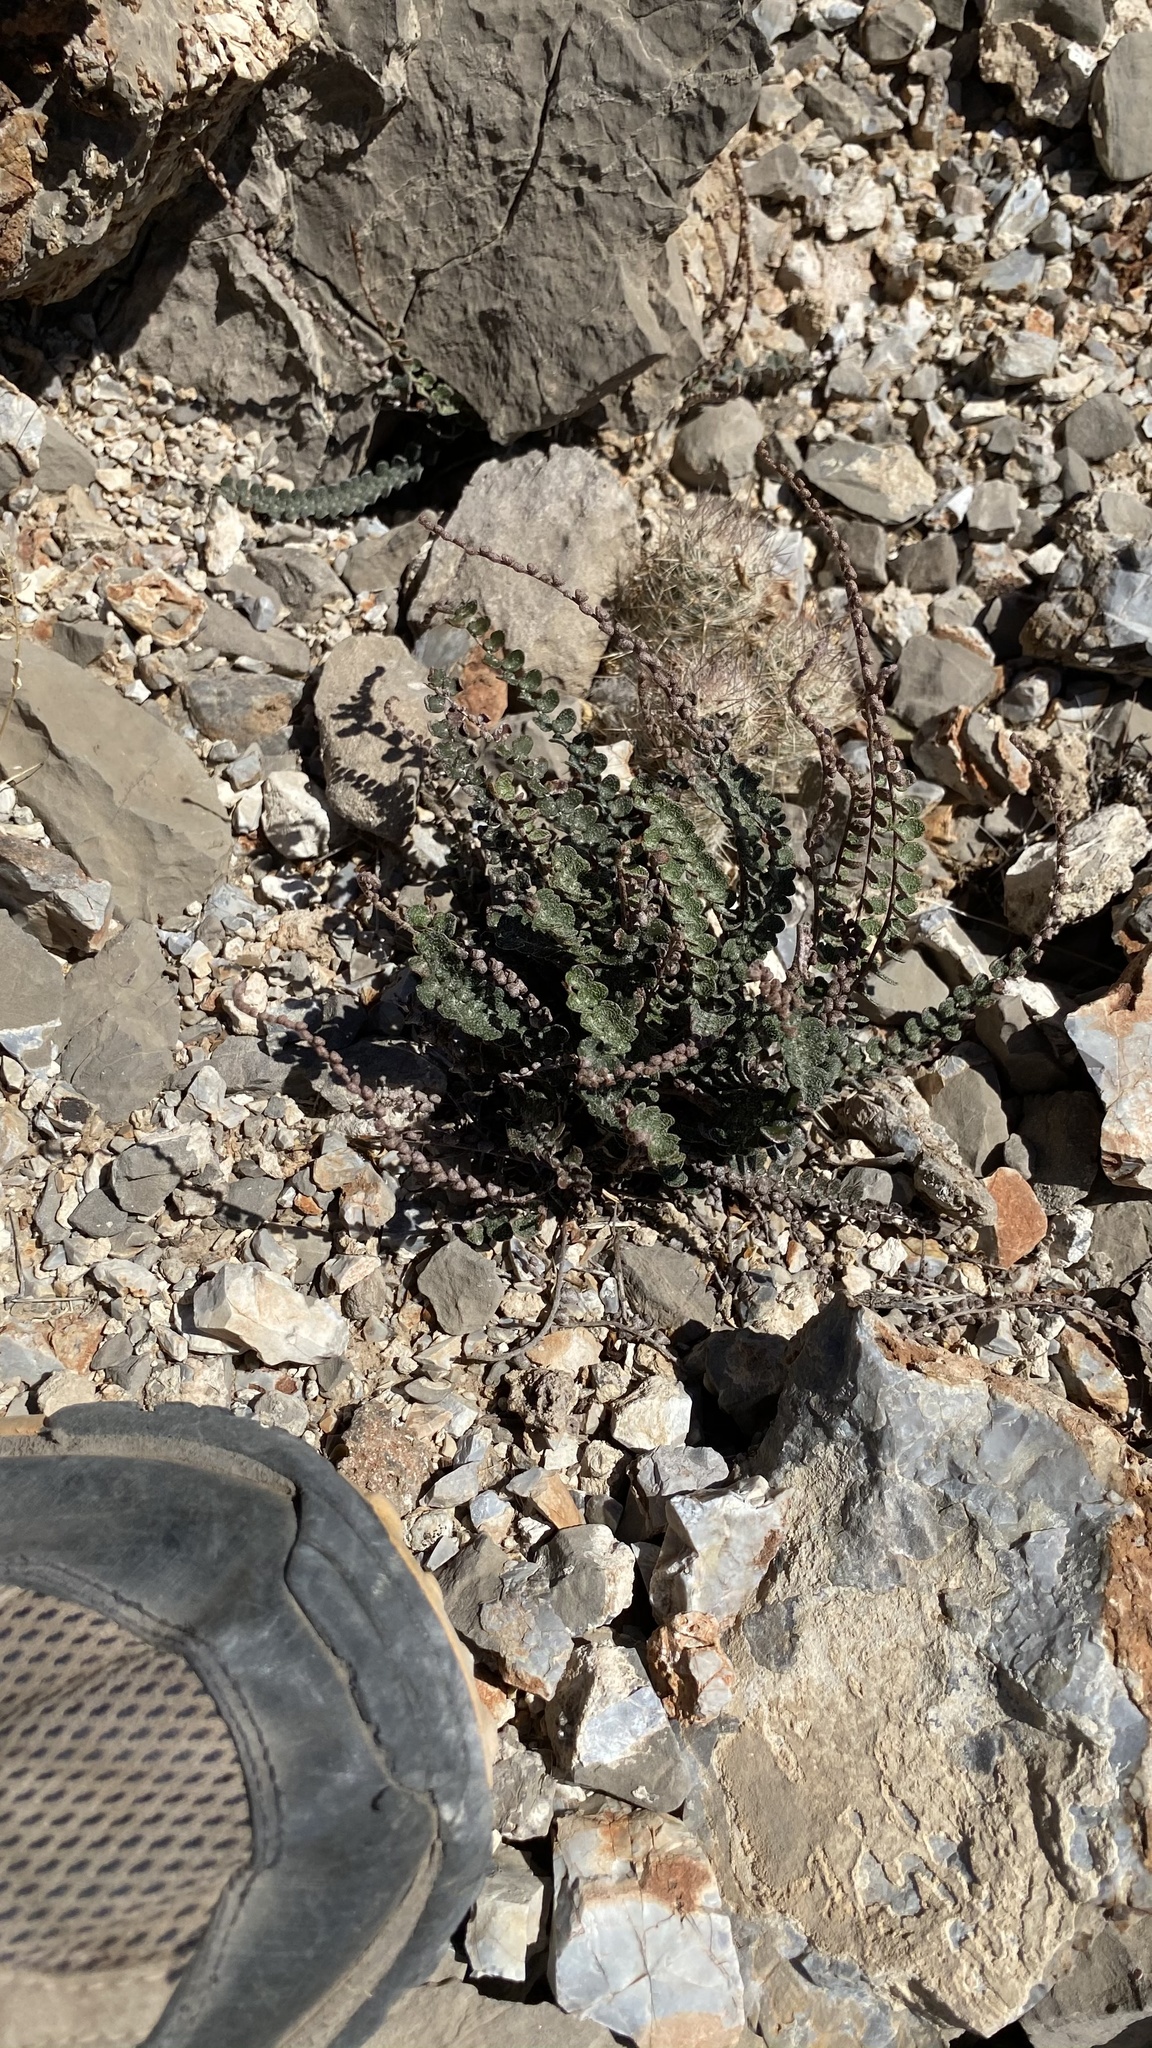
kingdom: Plantae
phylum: Tracheophyta
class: Polypodiopsida
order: Polypodiales
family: Pteridaceae
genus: Astrolepis
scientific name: Astrolepis cochisensis
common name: Scaly cloak fern
